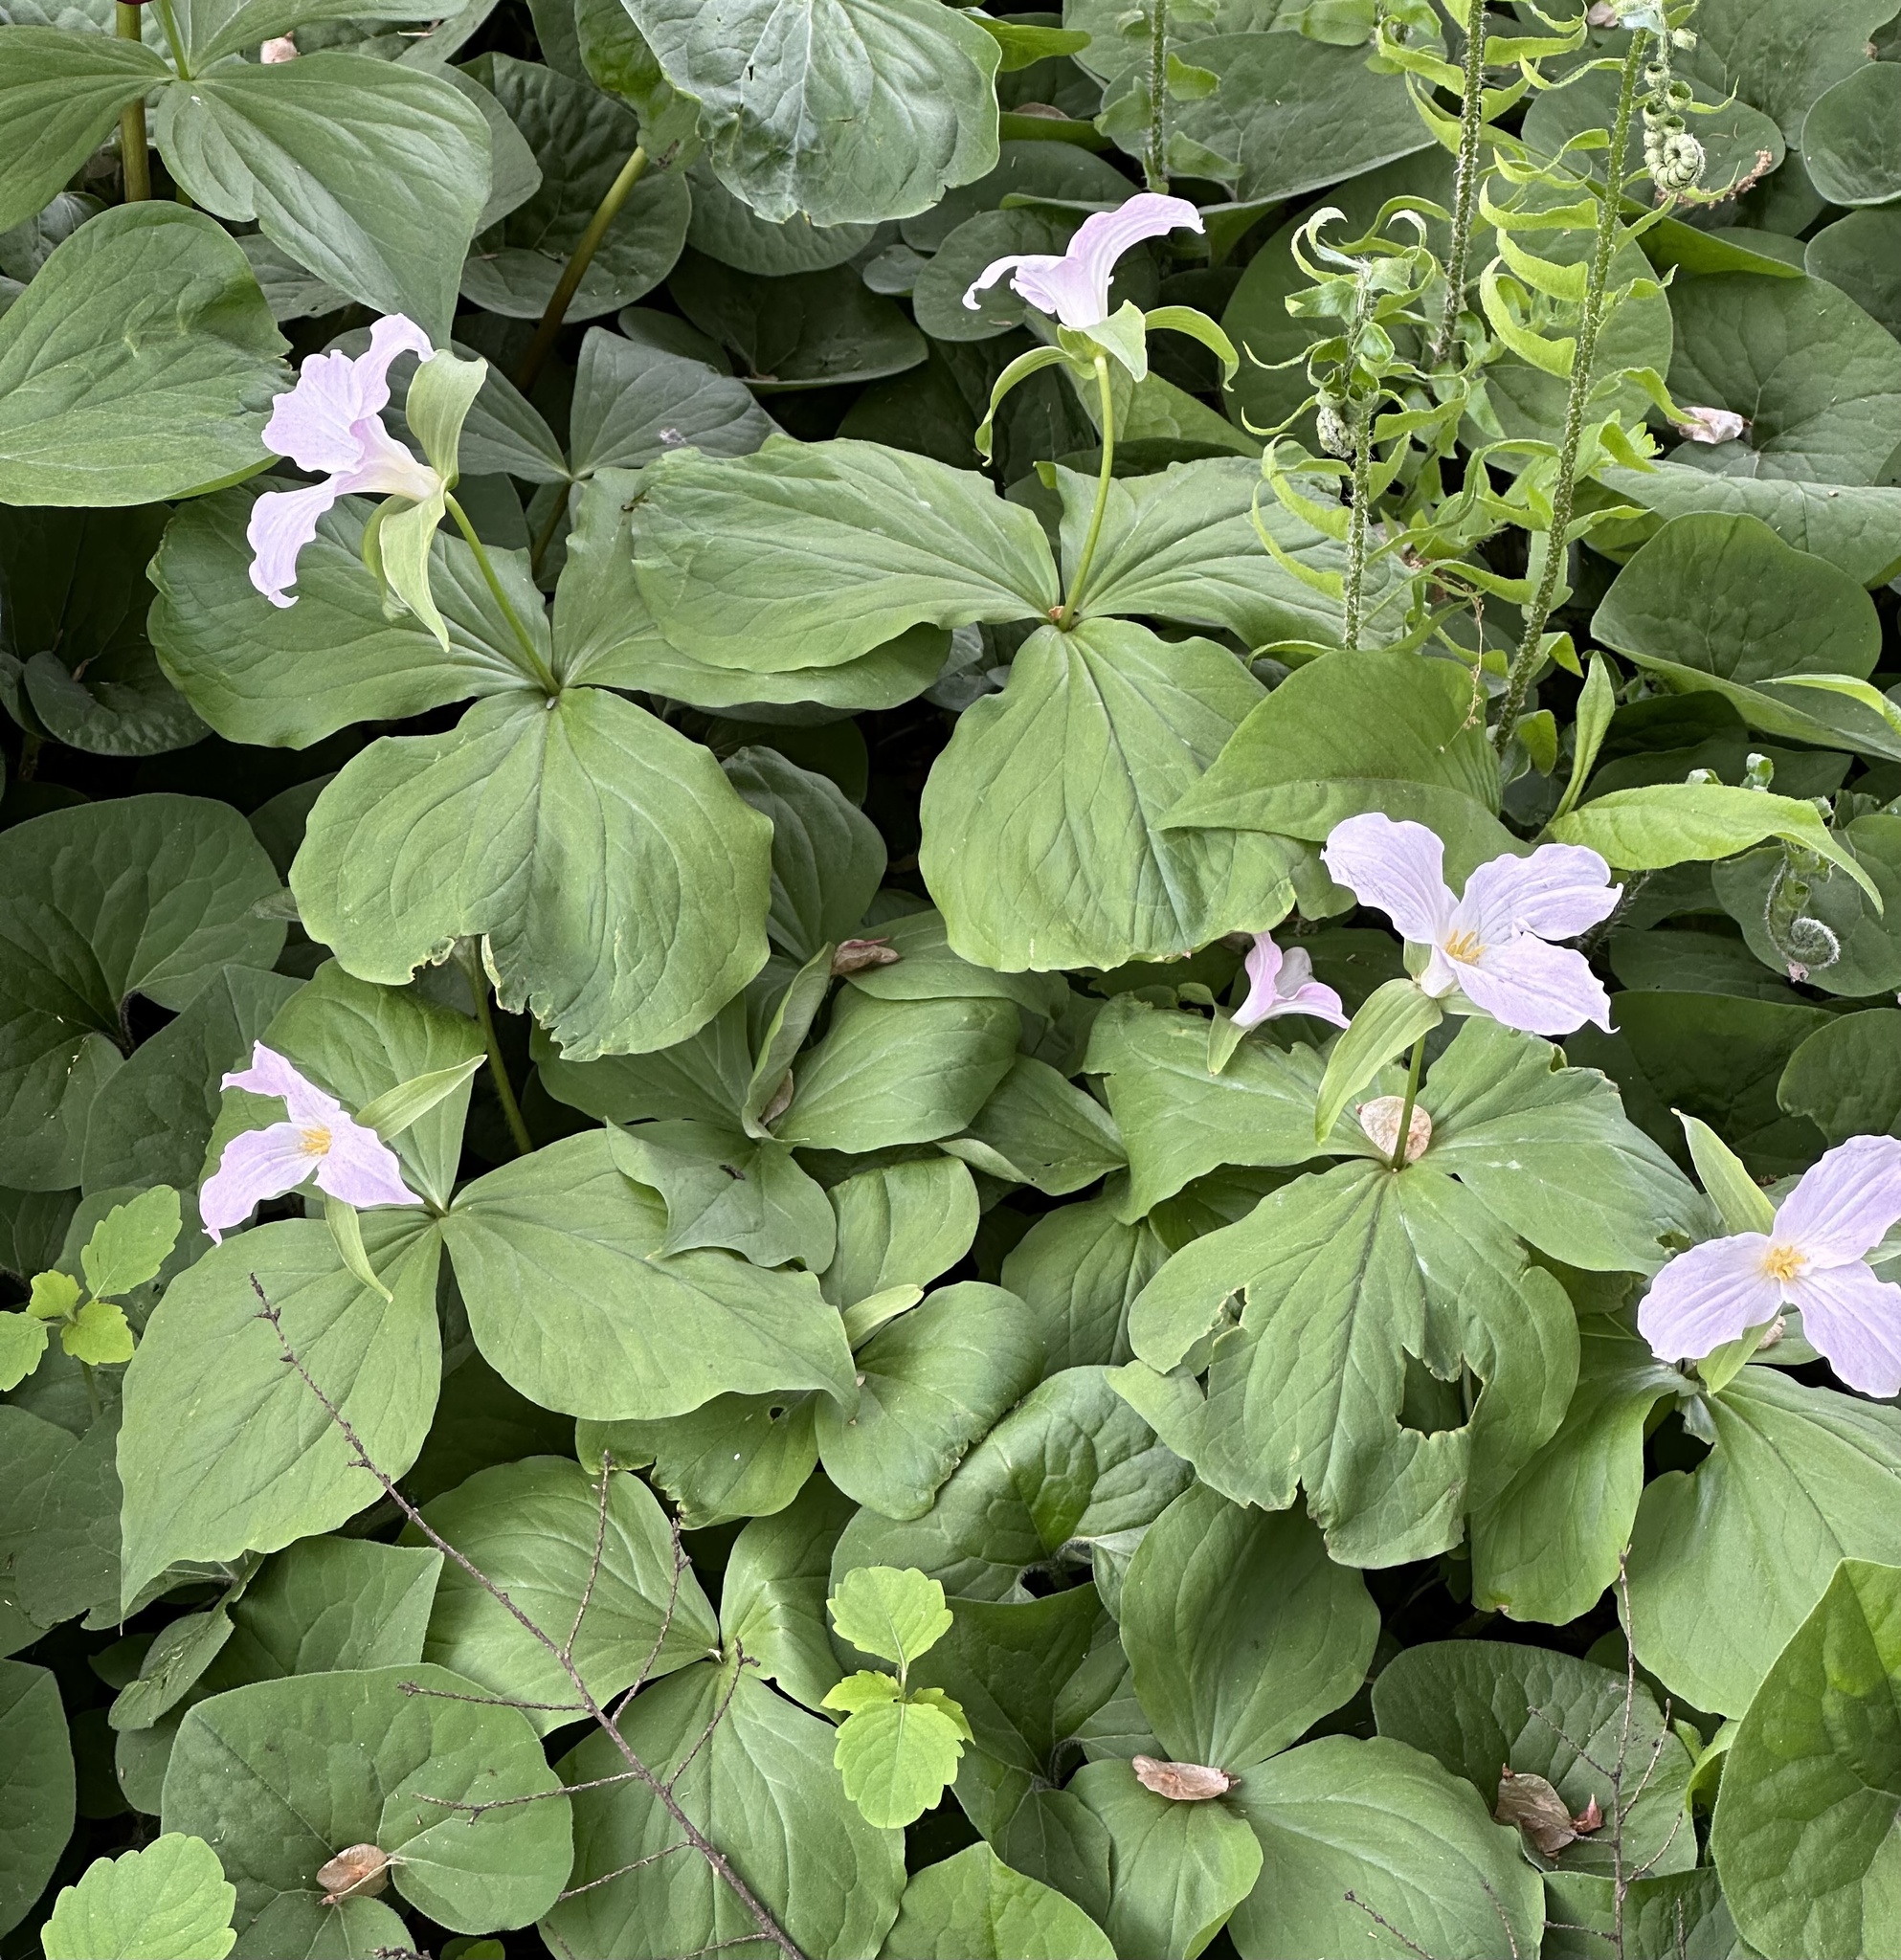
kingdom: Plantae
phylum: Tracheophyta
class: Liliopsida
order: Liliales
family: Melanthiaceae
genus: Trillium
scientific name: Trillium grandiflorum
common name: Great white trillium
